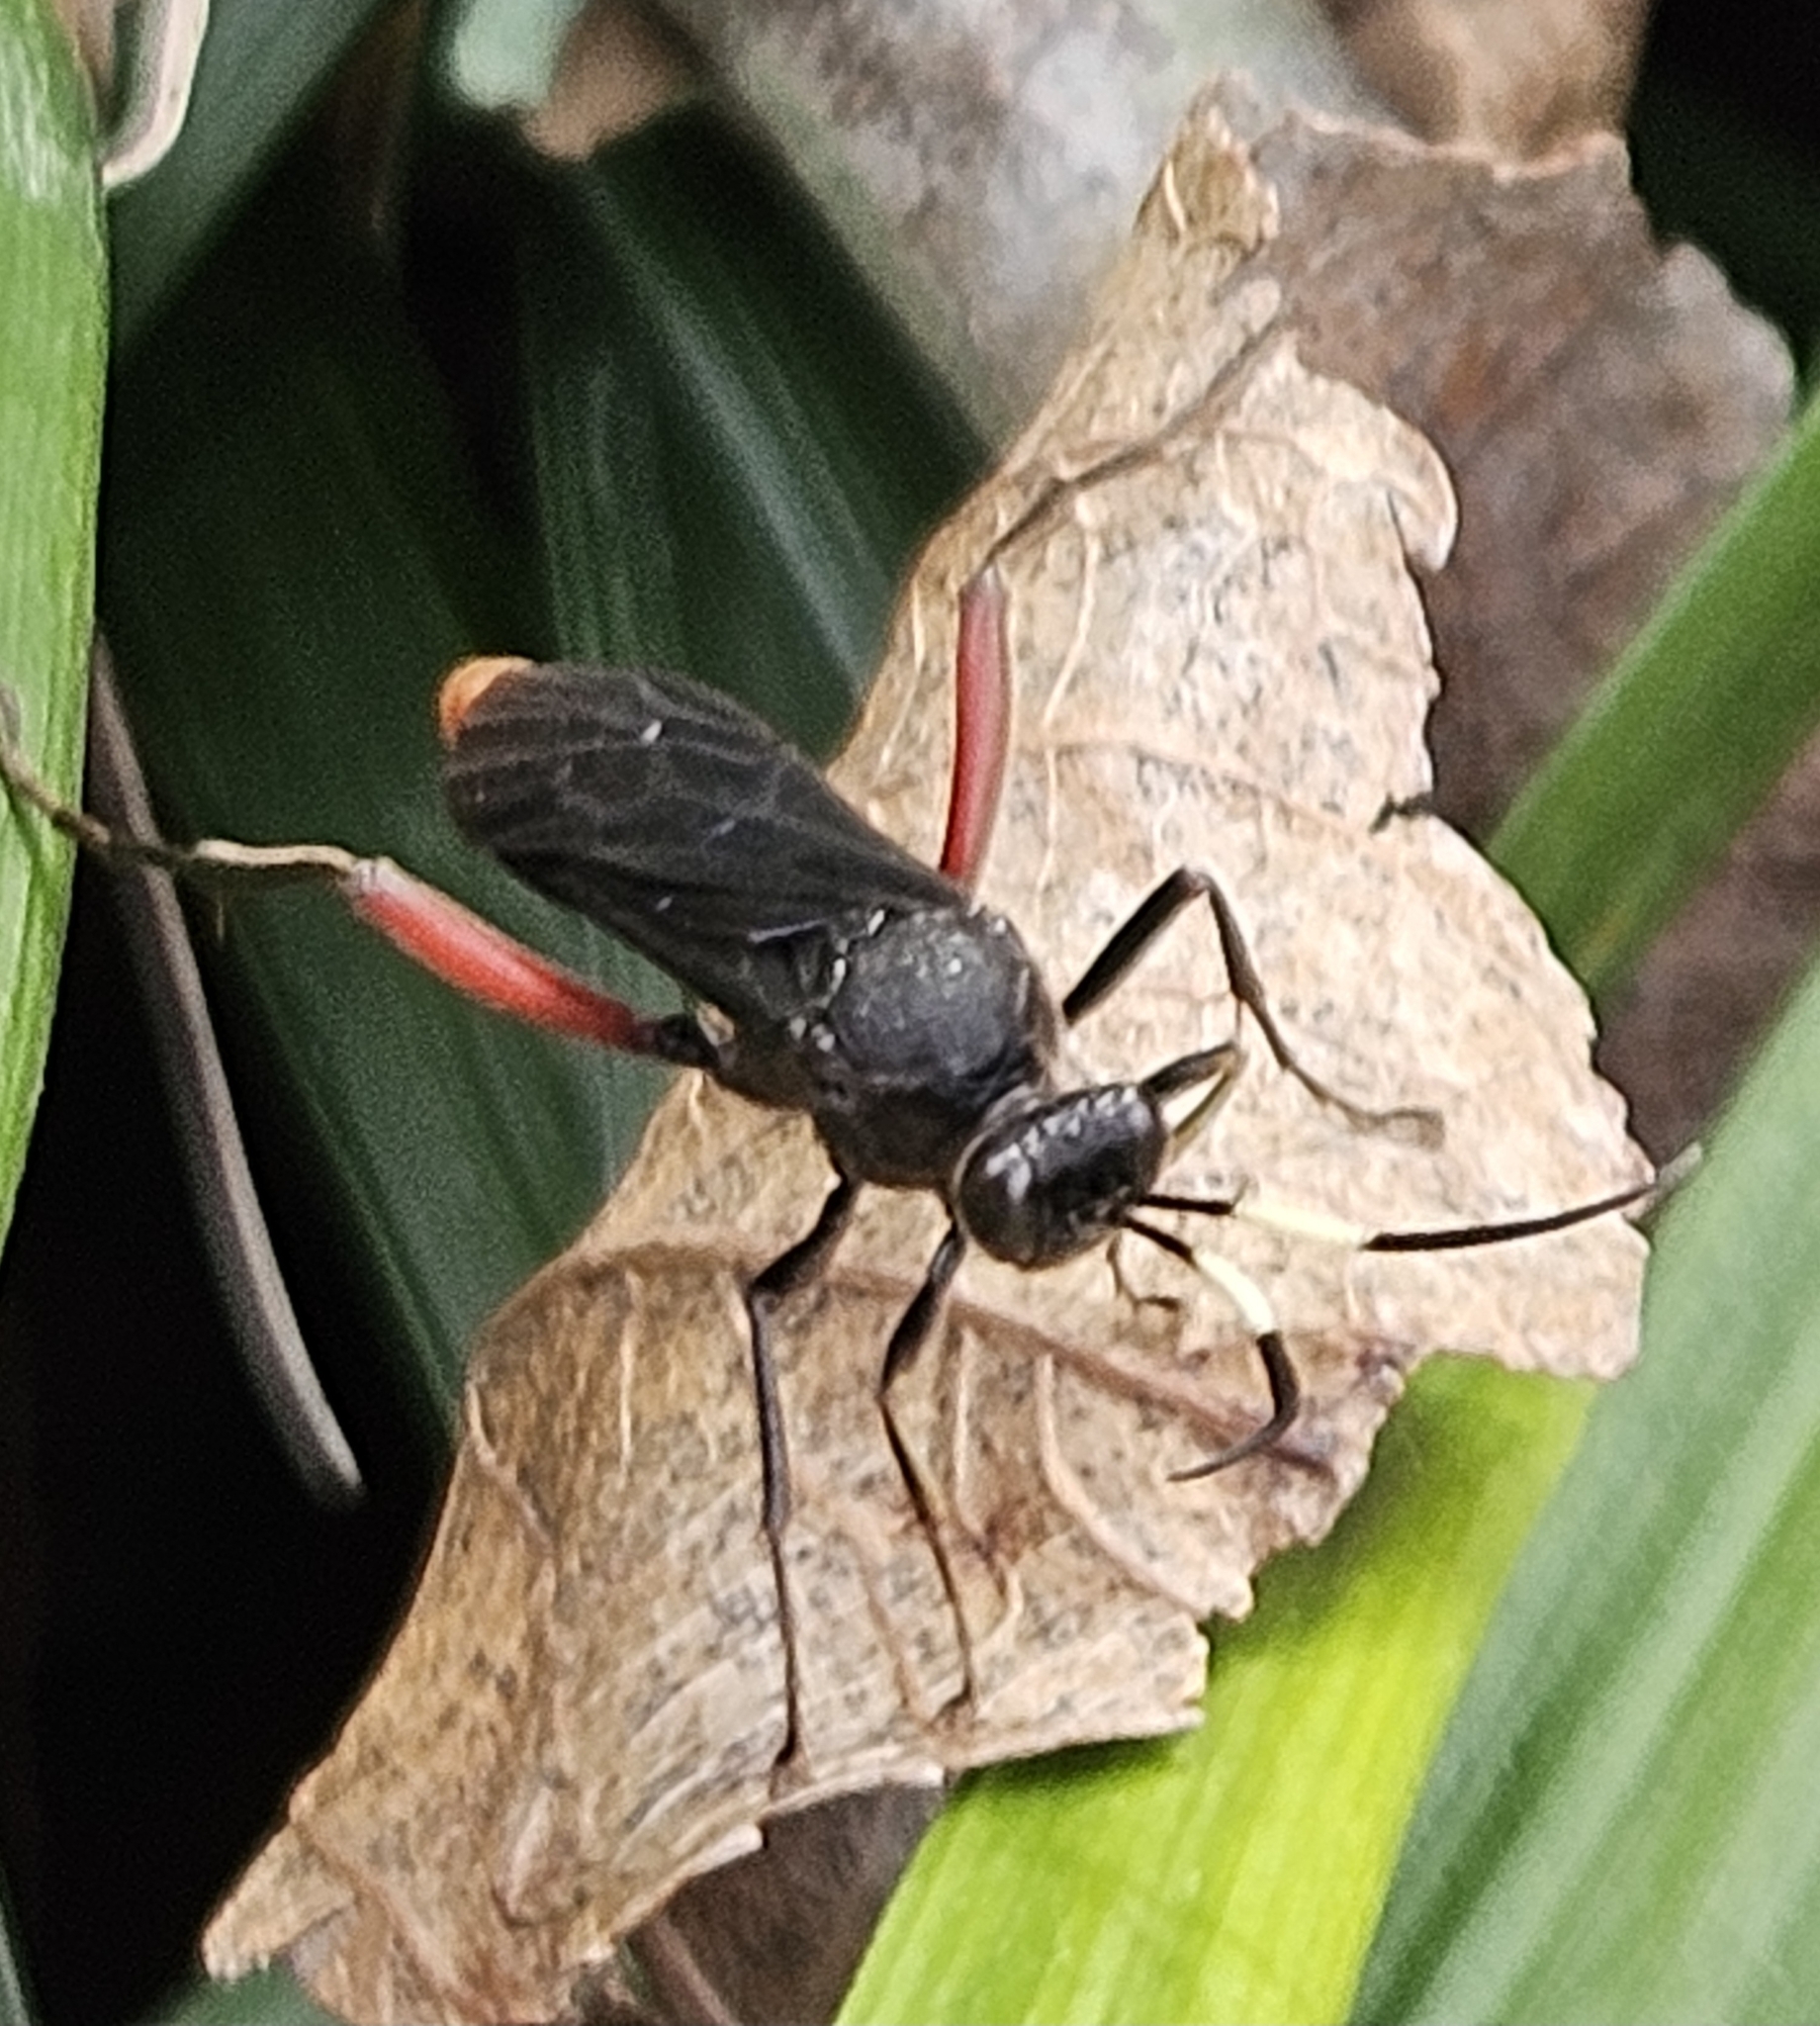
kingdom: Animalia
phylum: Arthropoda
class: Insecta
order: Hymenoptera
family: Ichneumonidae
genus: Limonethe
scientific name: Limonethe maurator
